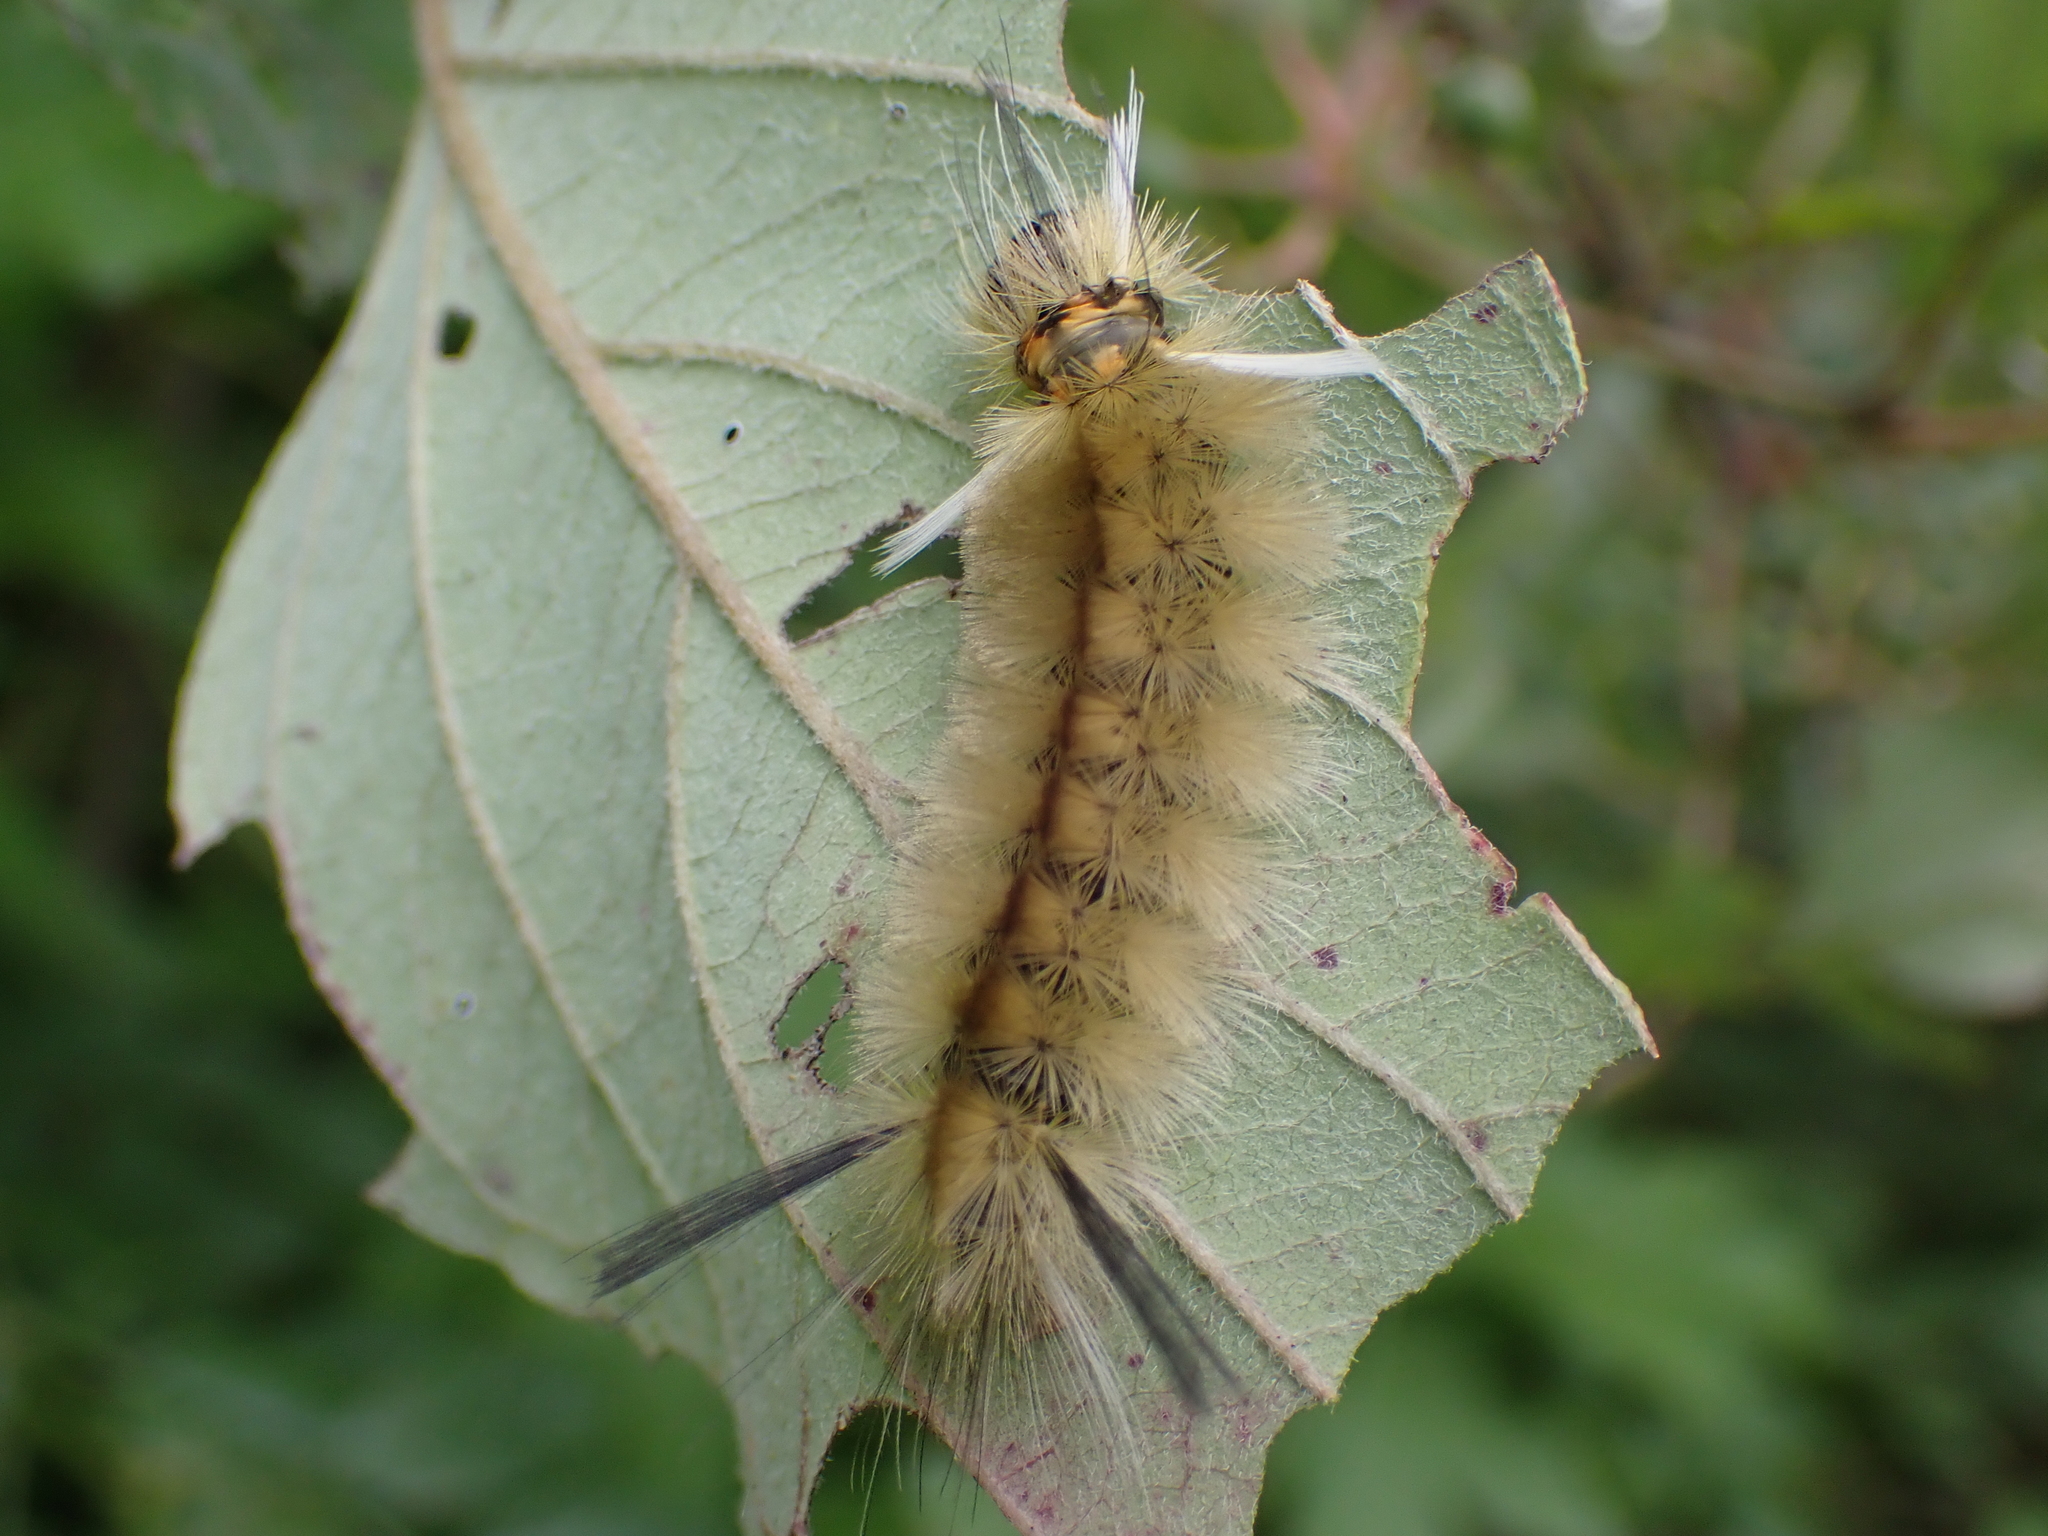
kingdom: Animalia
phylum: Arthropoda
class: Insecta
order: Lepidoptera
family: Erebidae
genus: Halysidota
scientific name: Halysidota tessellaris
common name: Banded tussock moth
